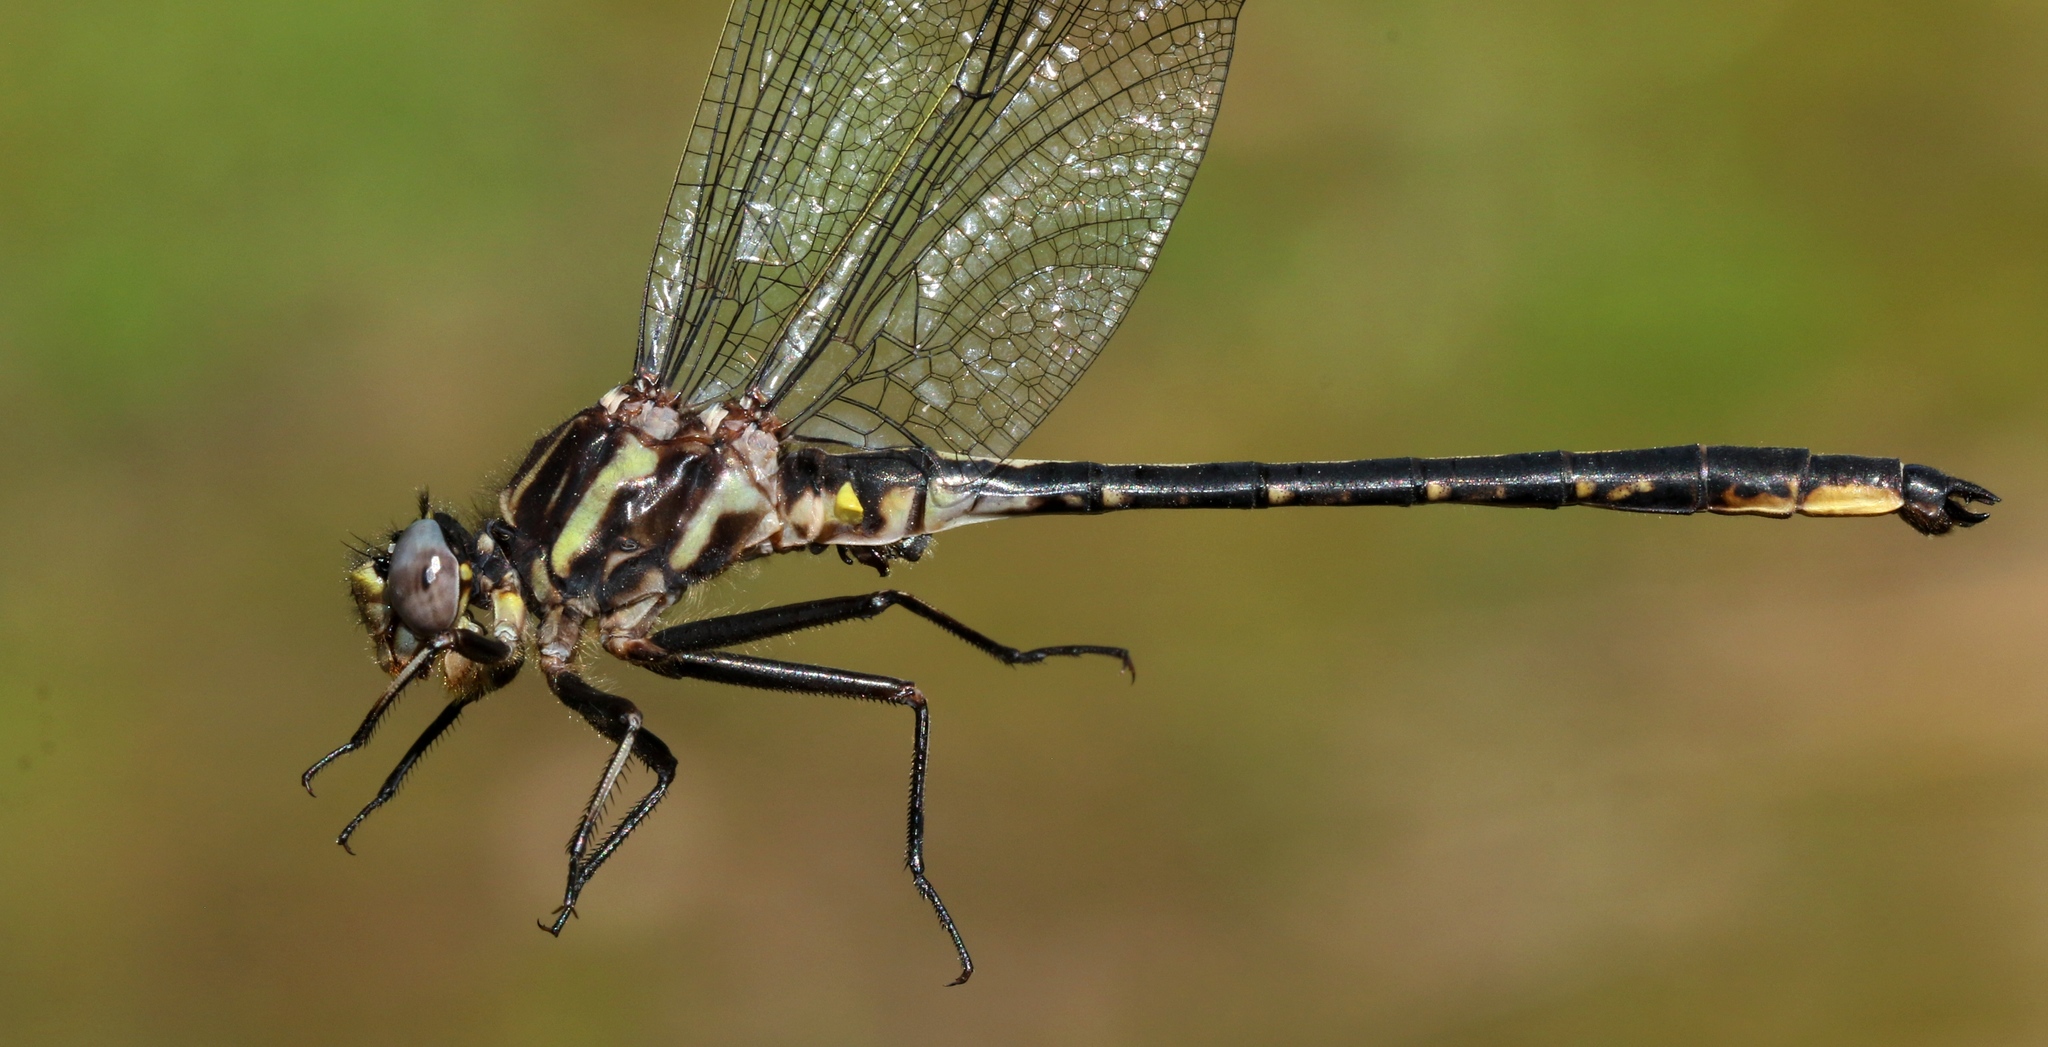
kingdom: Animalia
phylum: Arthropoda
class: Insecta
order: Odonata
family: Gomphidae
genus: Phanogomphus
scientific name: Phanogomphus spicatus
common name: Dusky clubtail
